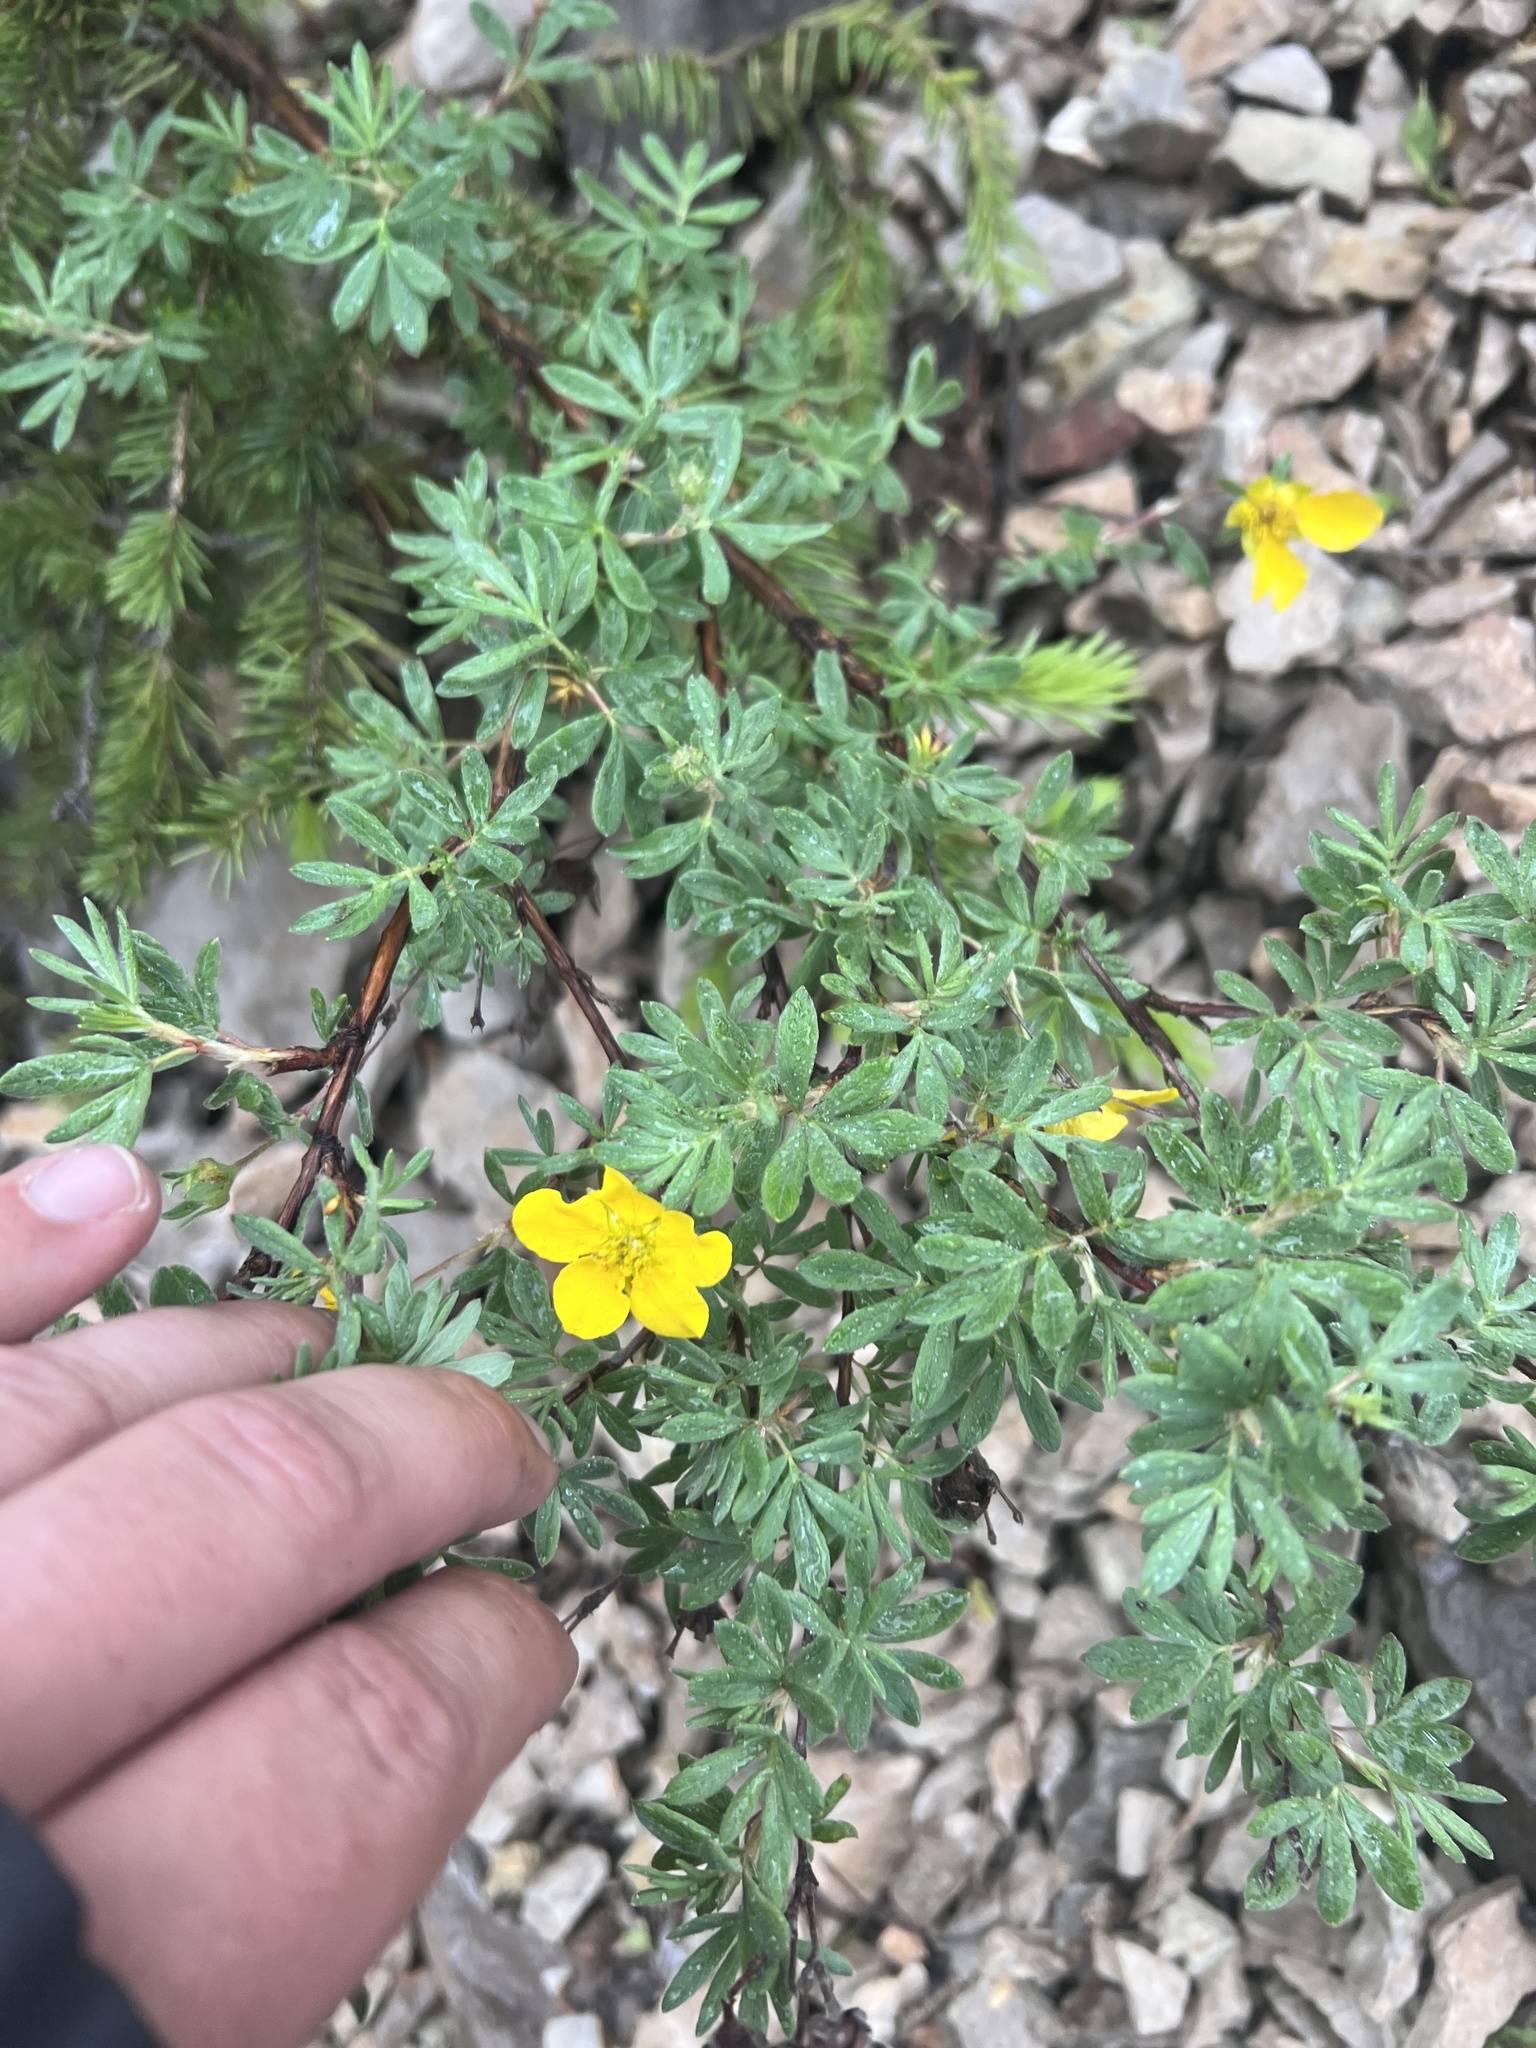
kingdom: Plantae
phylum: Tracheophyta
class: Magnoliopsida
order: Rosales
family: Rosaceae
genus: Dasiphora
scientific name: Dasiphora fruticosa
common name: Shrubby cinquefoil
